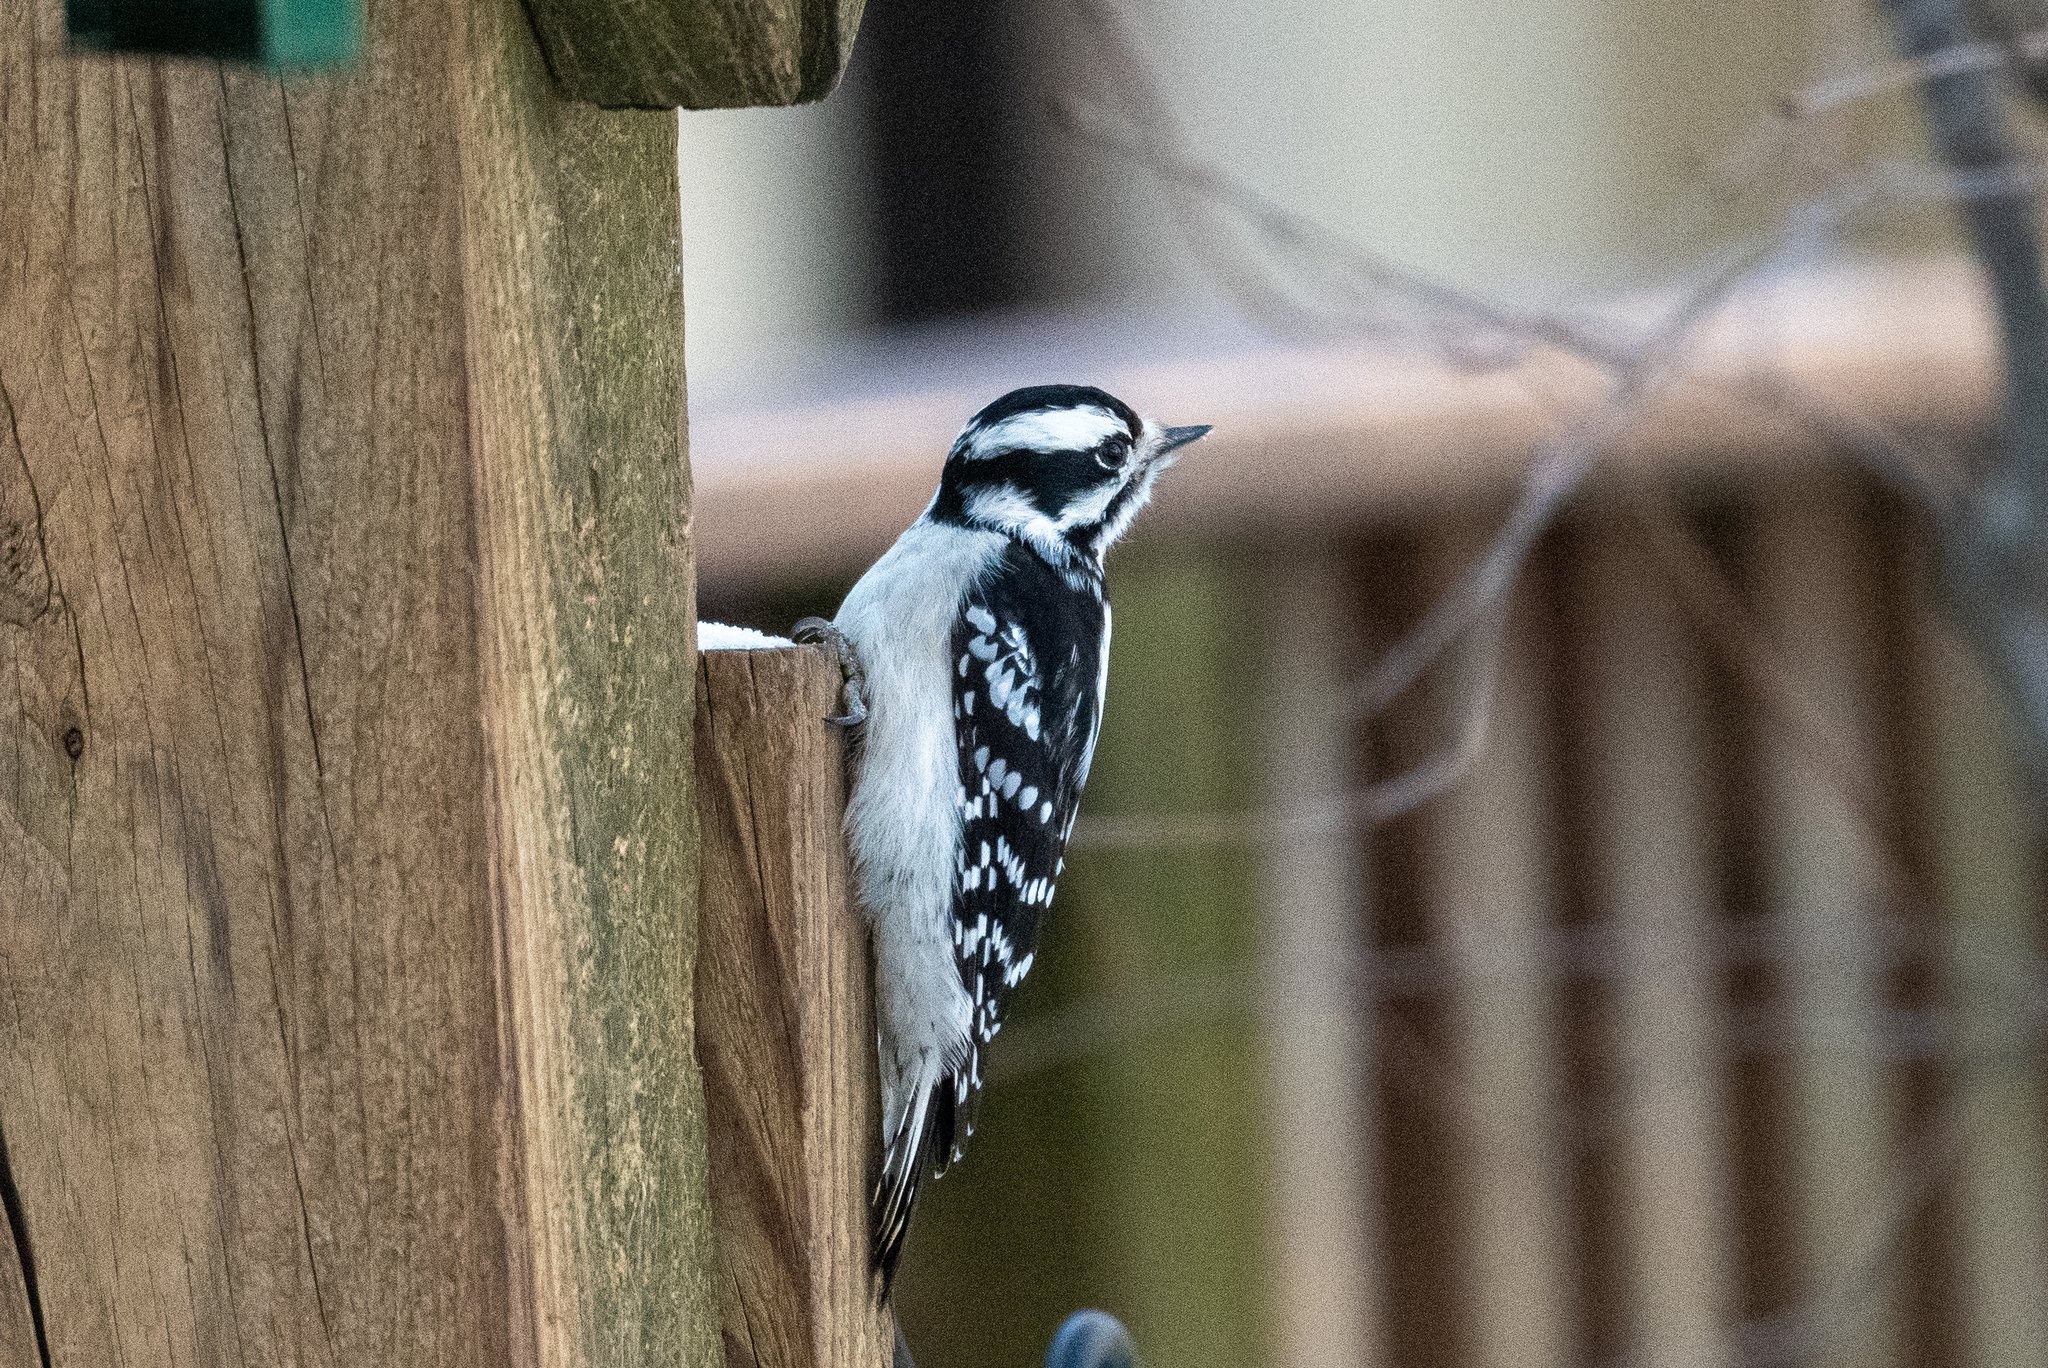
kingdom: Animalia
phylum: Chordata
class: Aves
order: Piciformes
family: Picidae
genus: Dryobates
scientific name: Dryobates pubescens
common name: Downy woodpecker
